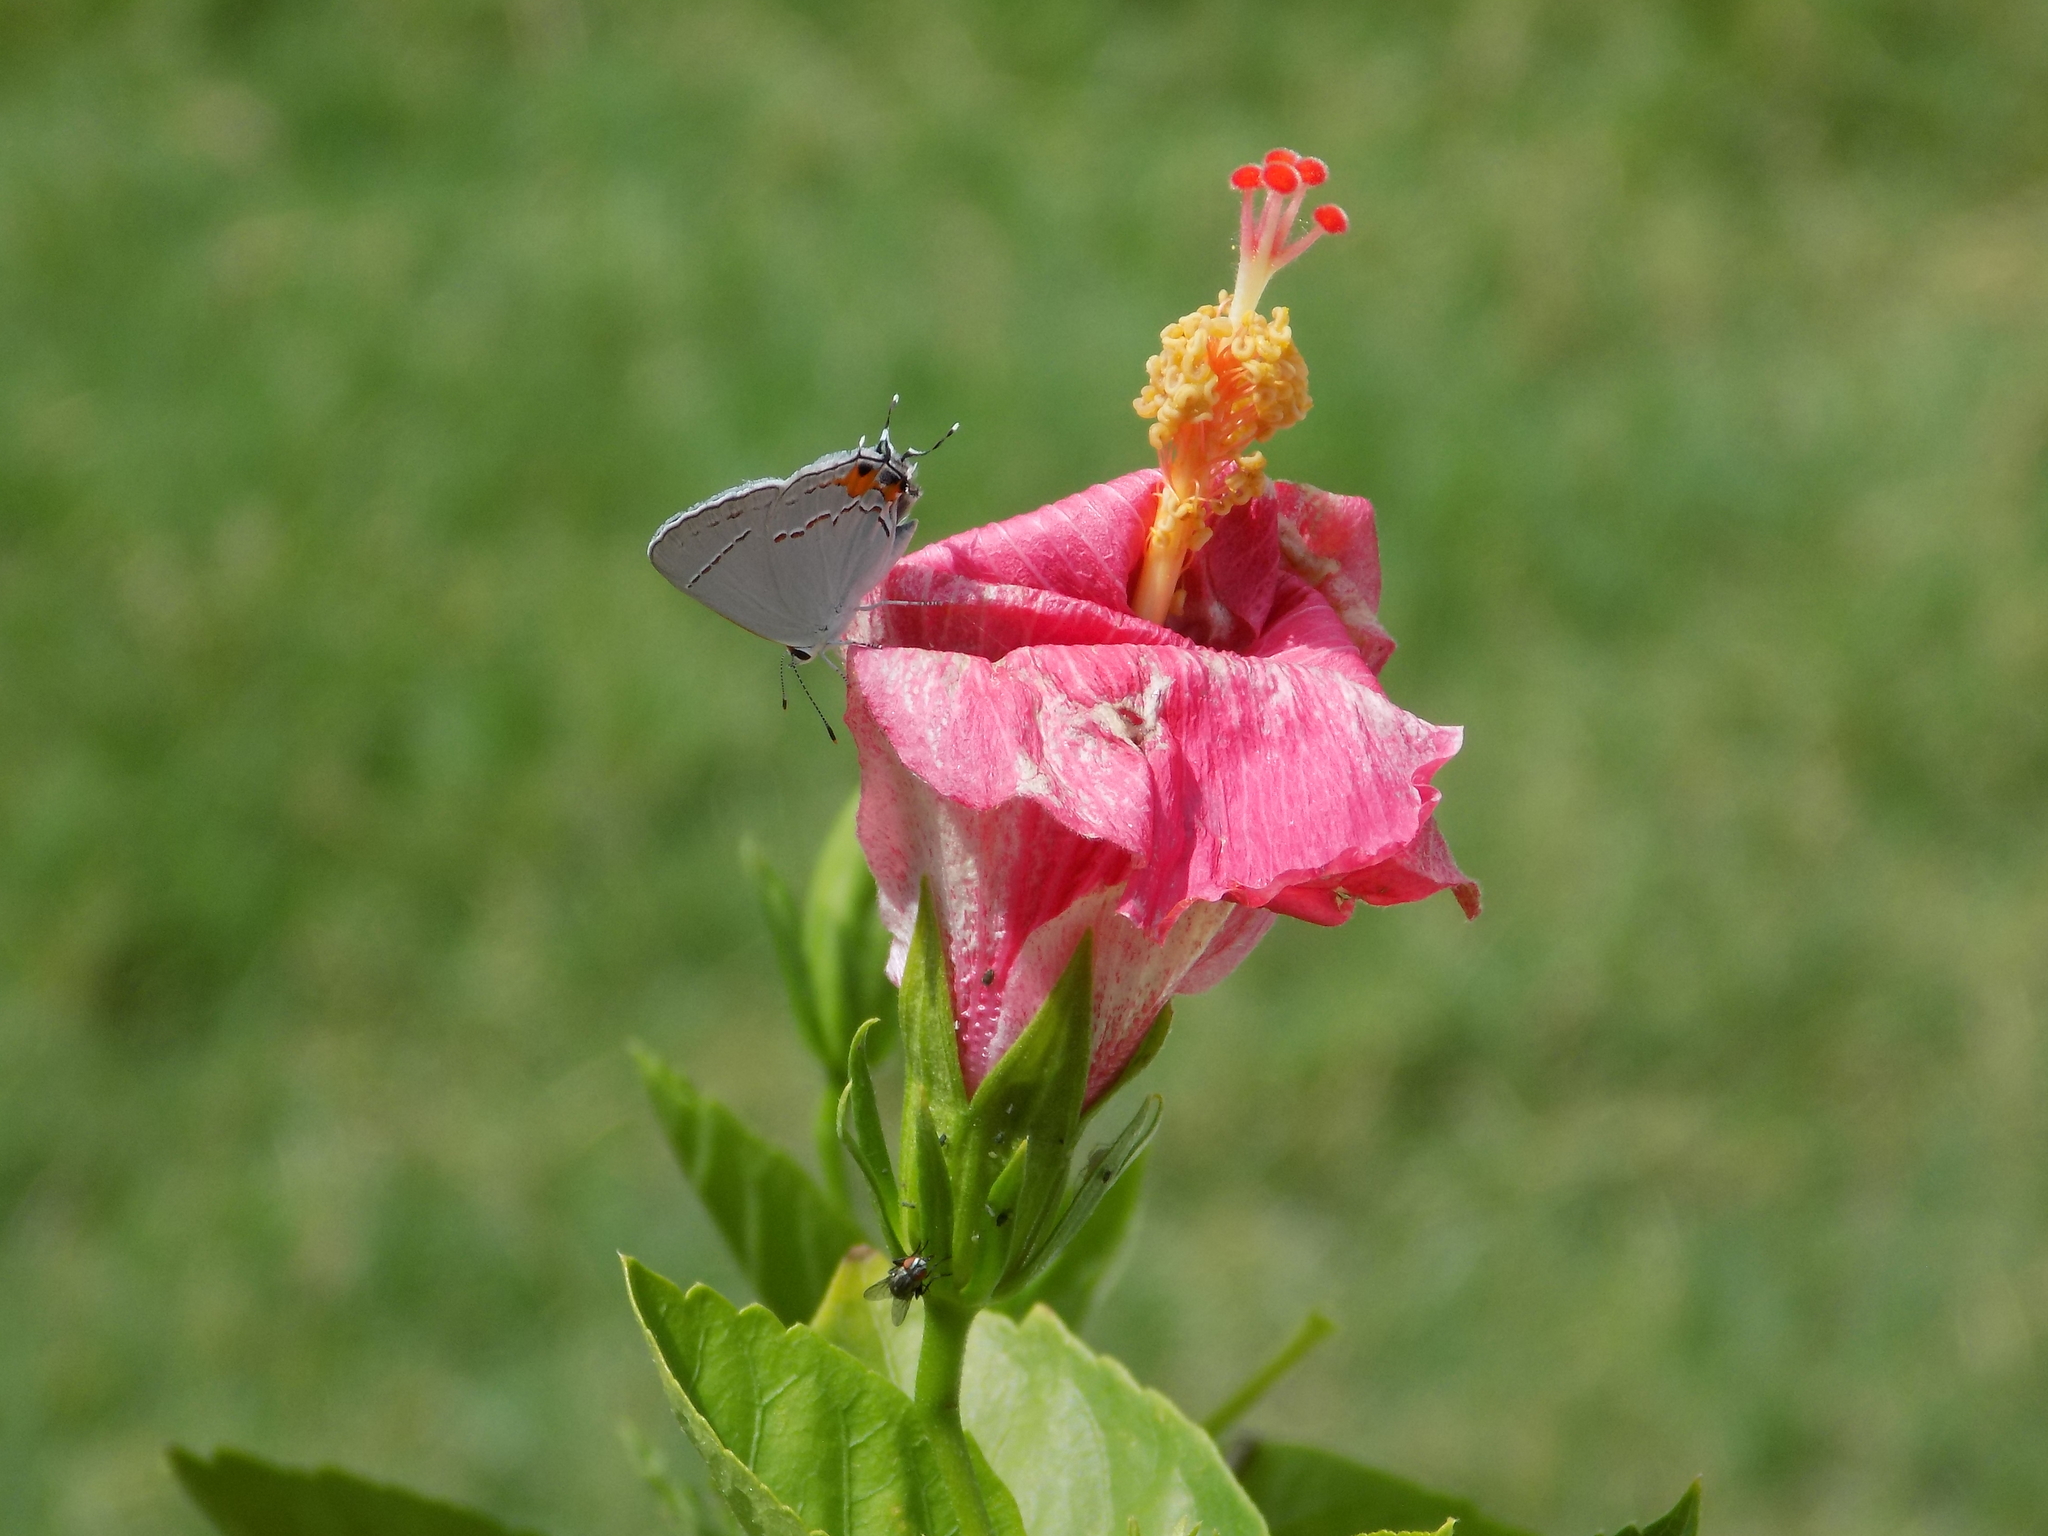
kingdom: Animalia
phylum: Arthropoda
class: Insecta
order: Lepidoptera
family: Lycaenidae
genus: Strymon
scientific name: Strymon melinus
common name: Gray hairstreak
